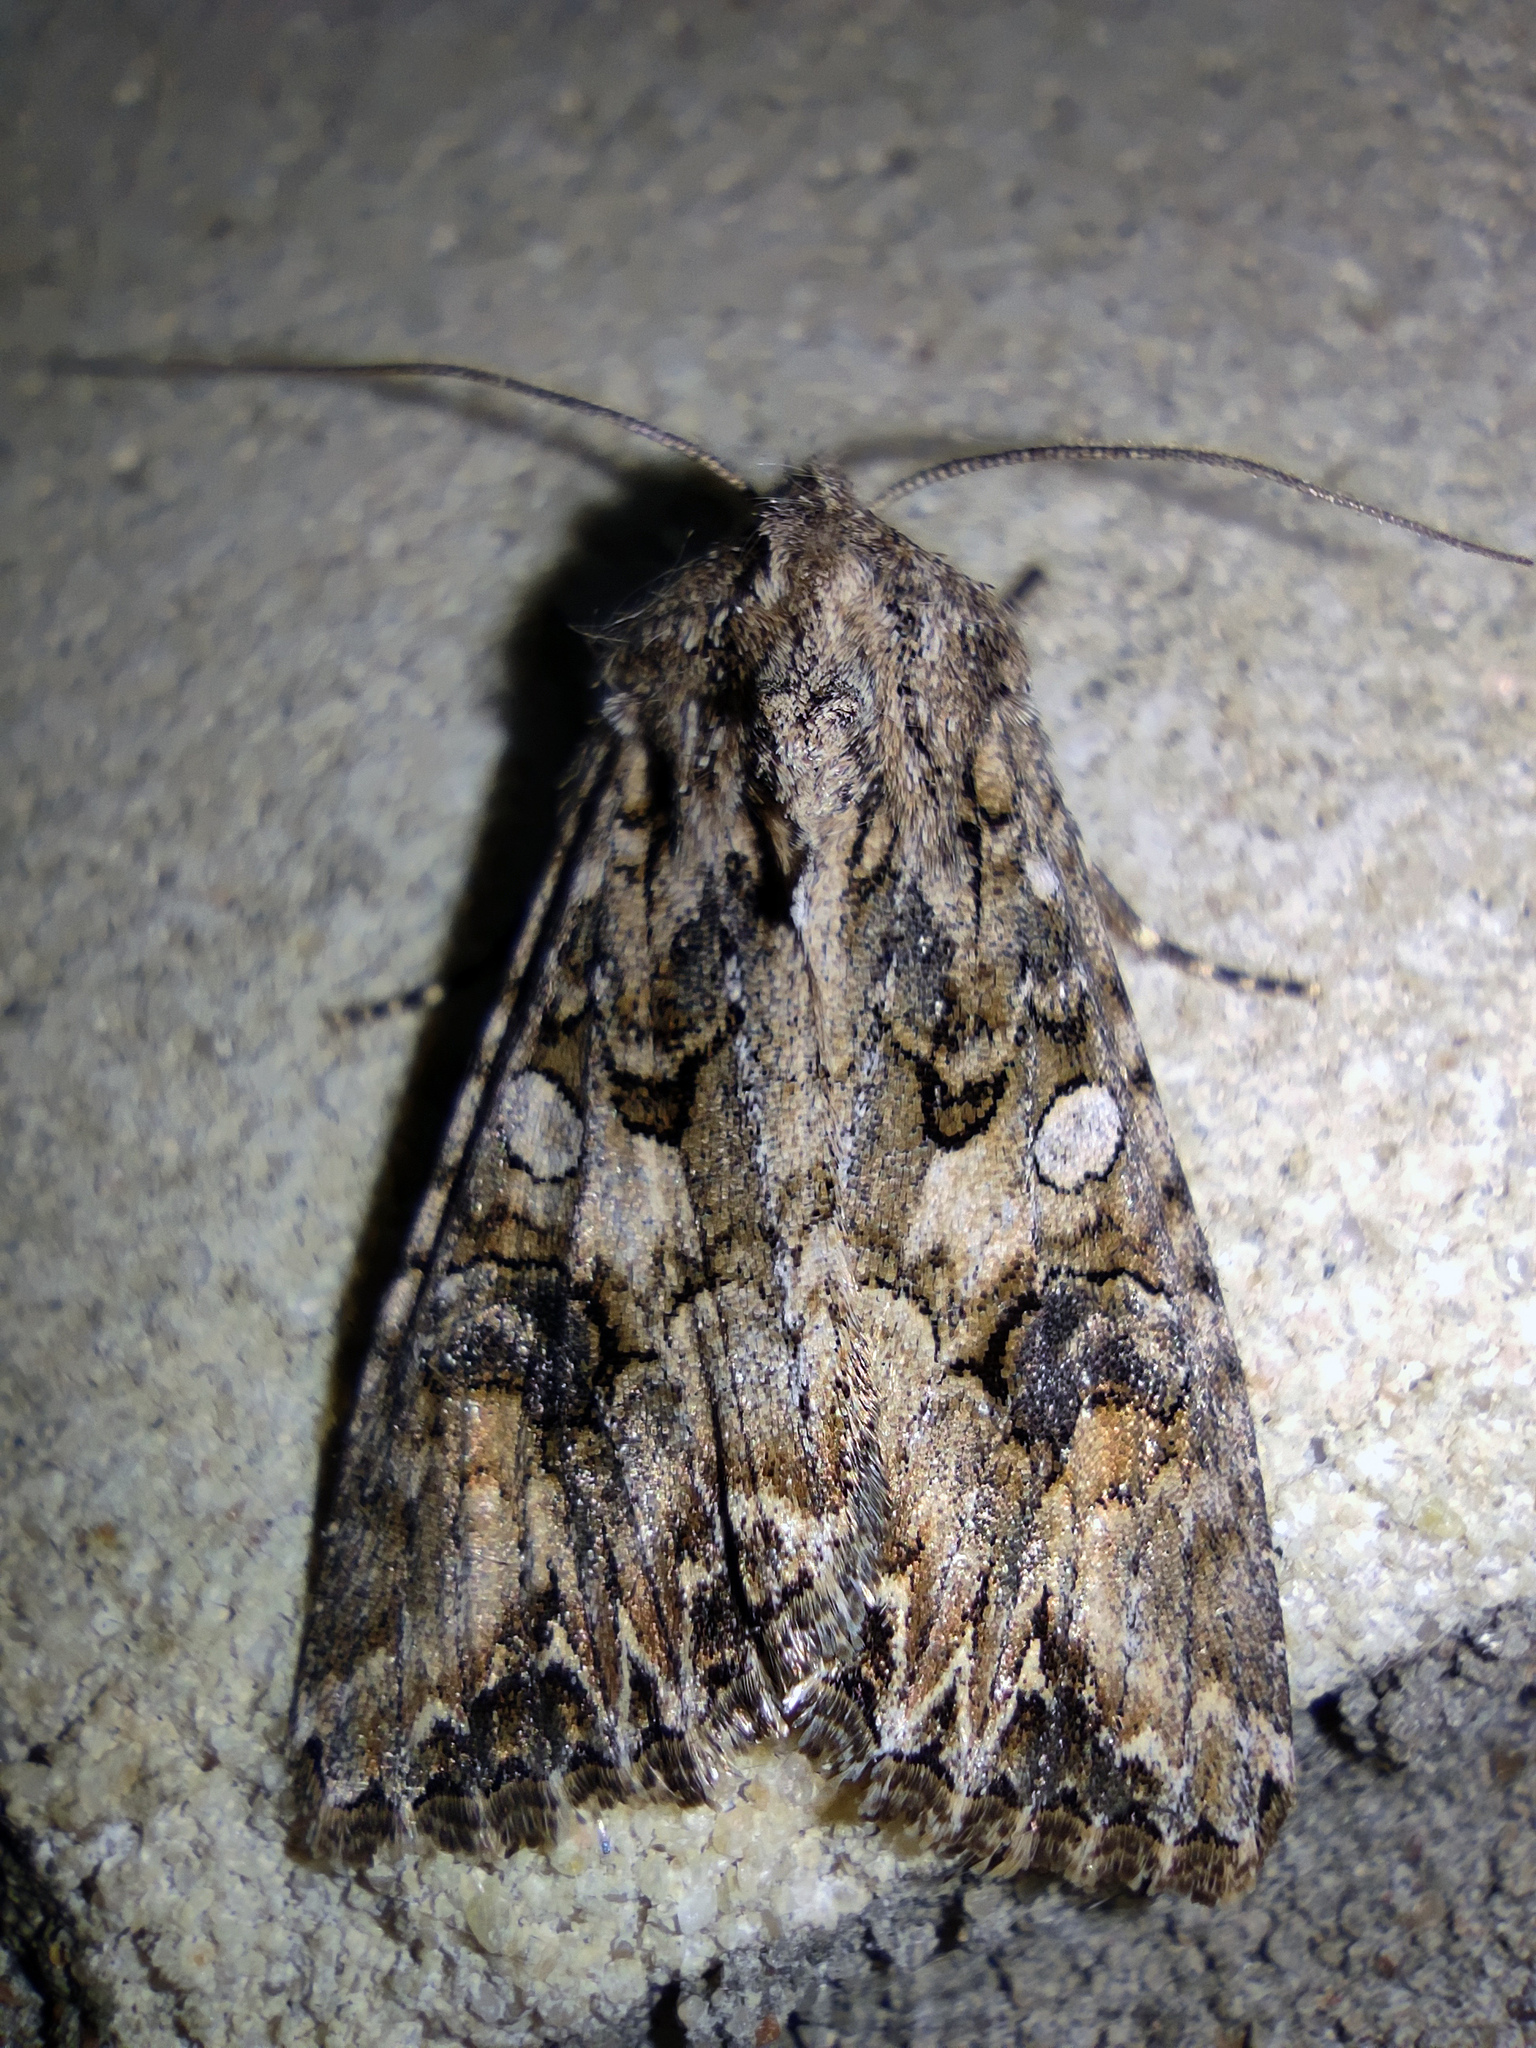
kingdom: Animalia
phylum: Arthropoda
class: Insecta
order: Lepidoptera
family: Noctuidae
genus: Anarta
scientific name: Anarta trifolii
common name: Clover cutworm moth
